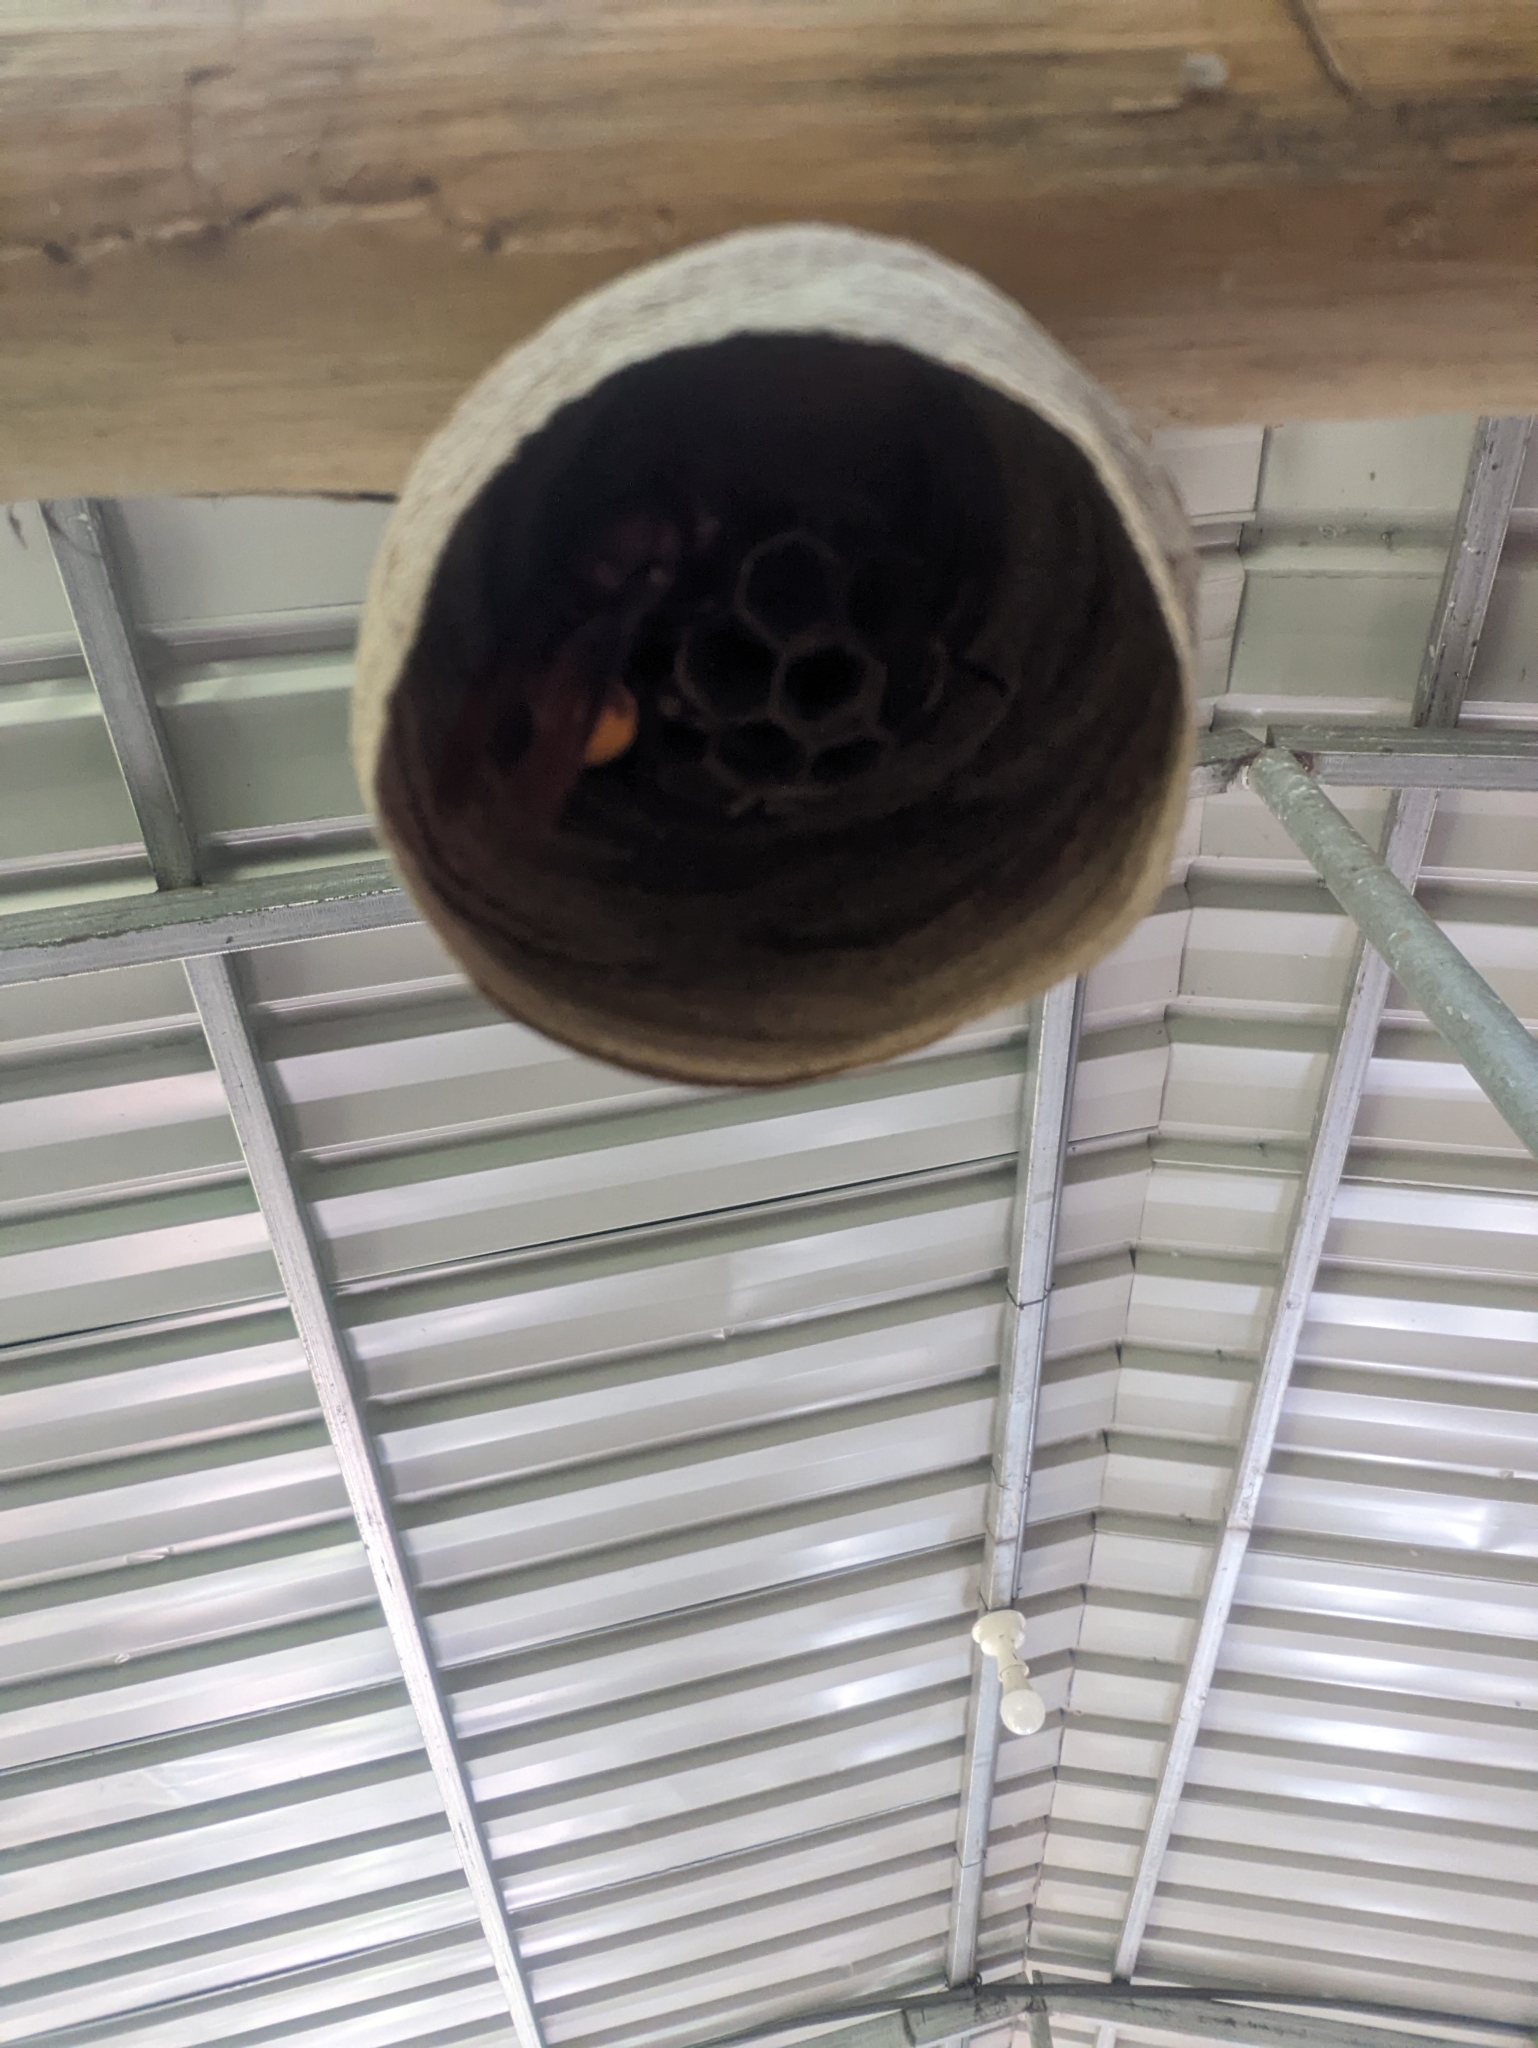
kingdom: Animalia
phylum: Arthropoda
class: Insecta
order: Hymenoptera
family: Vespidae
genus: Vespa
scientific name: Vespa affinis
